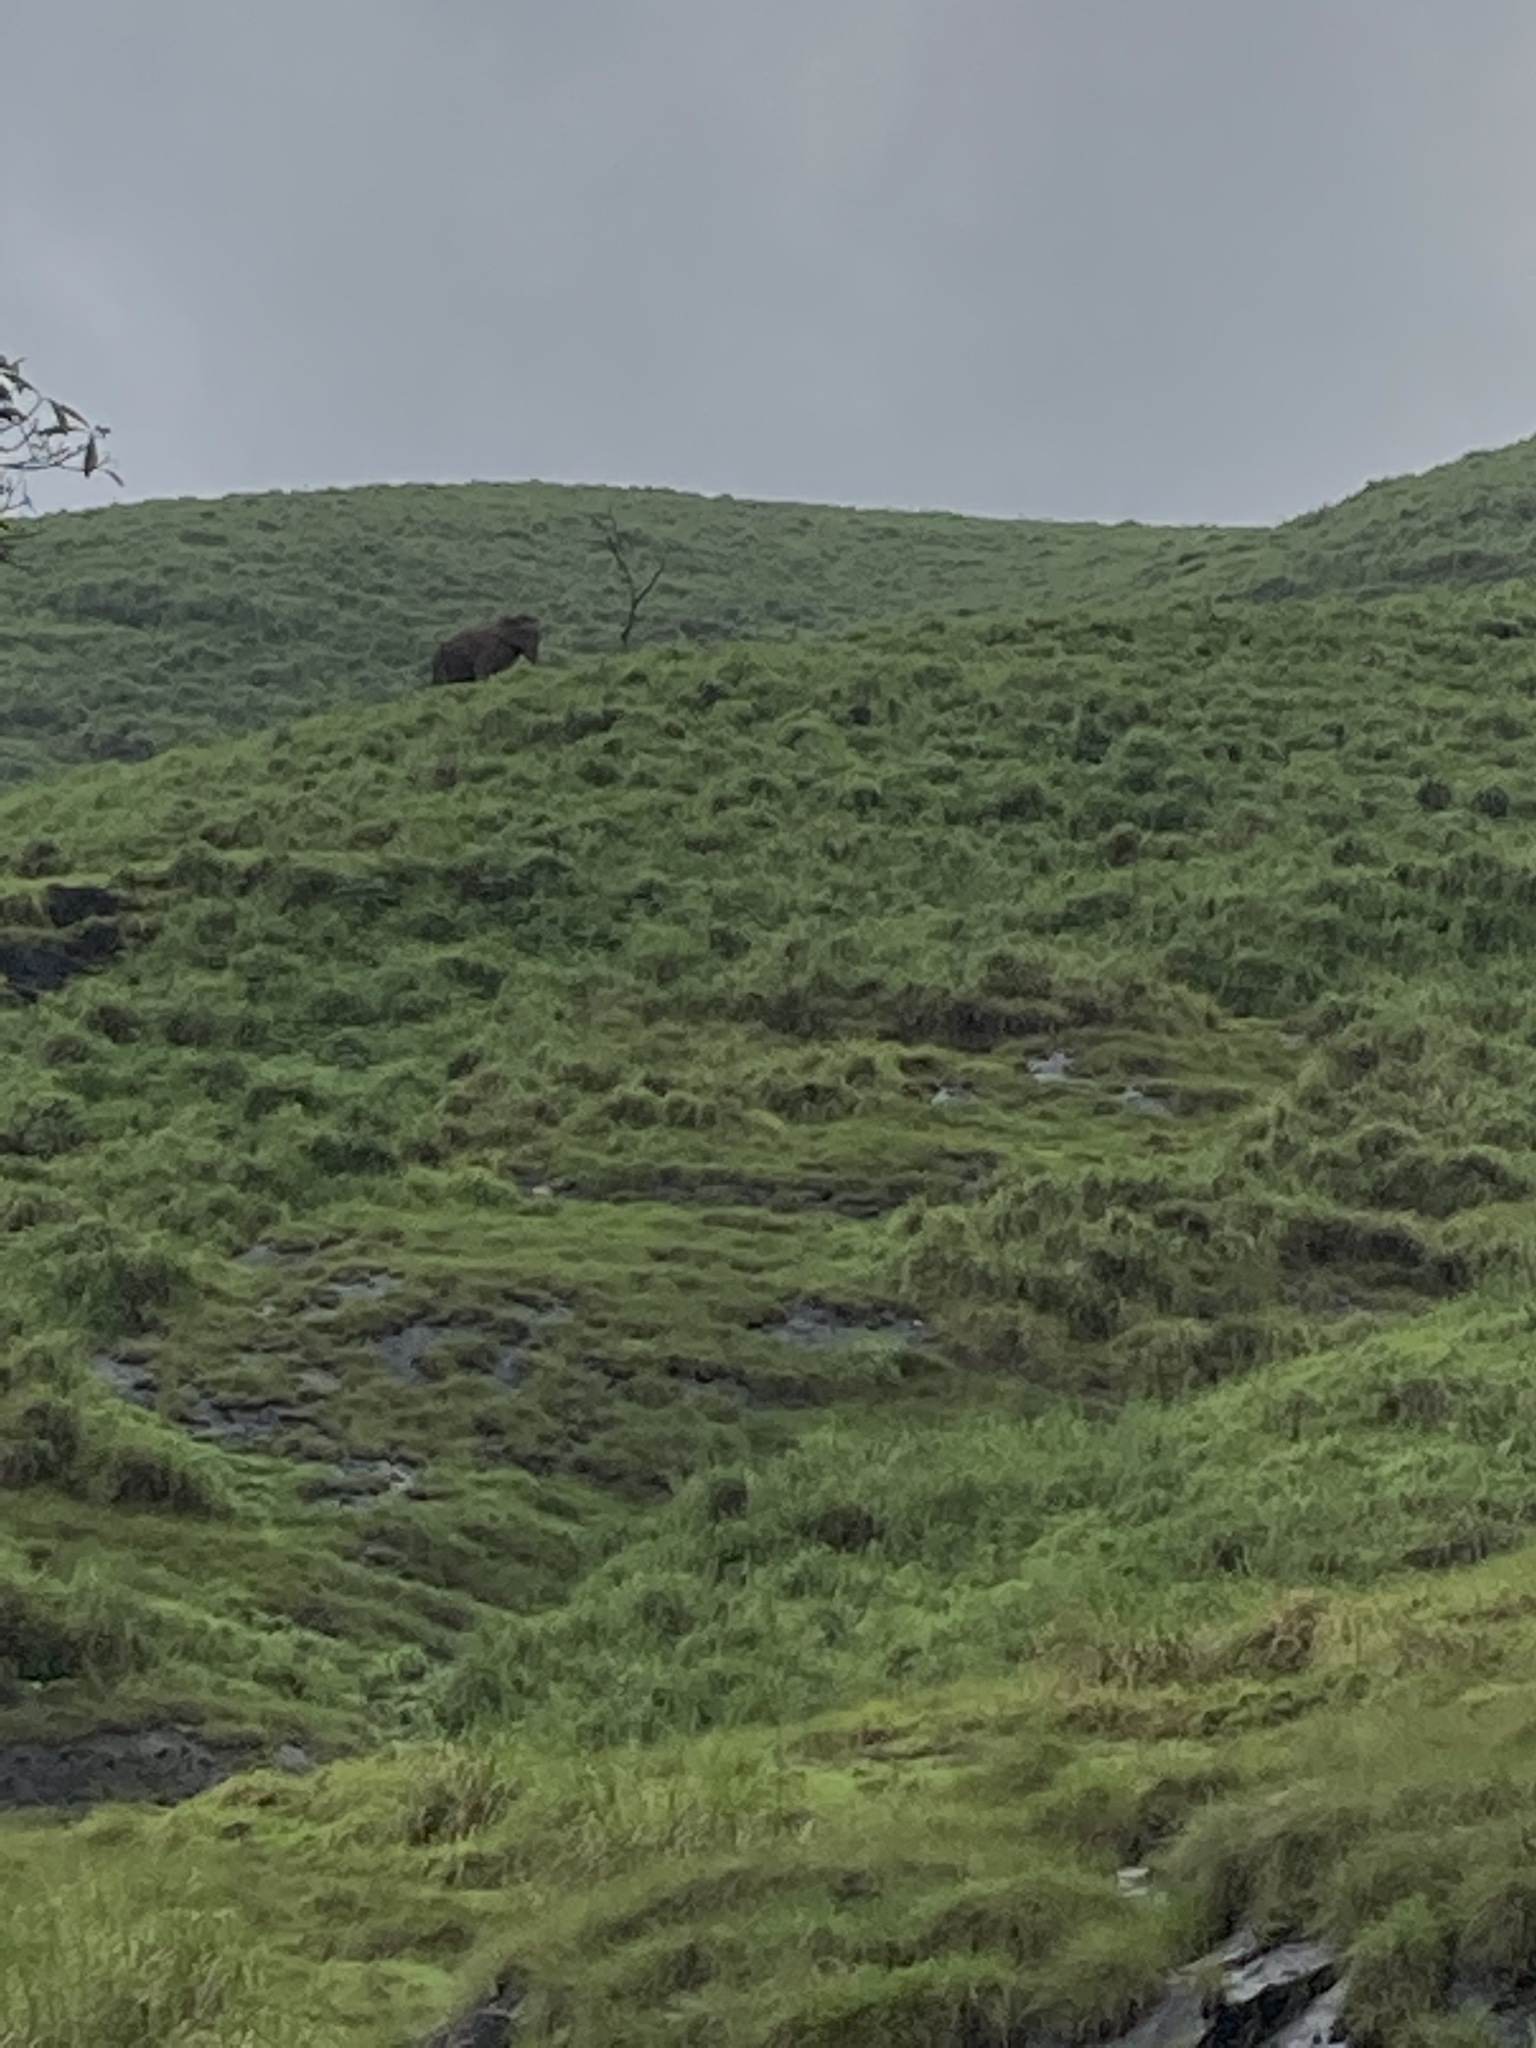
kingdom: Animalia
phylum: Chordata
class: Mammalia
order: Proboscidea
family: Elephantidae
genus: Elephas
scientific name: Elephas maximus
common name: Asian elephant
